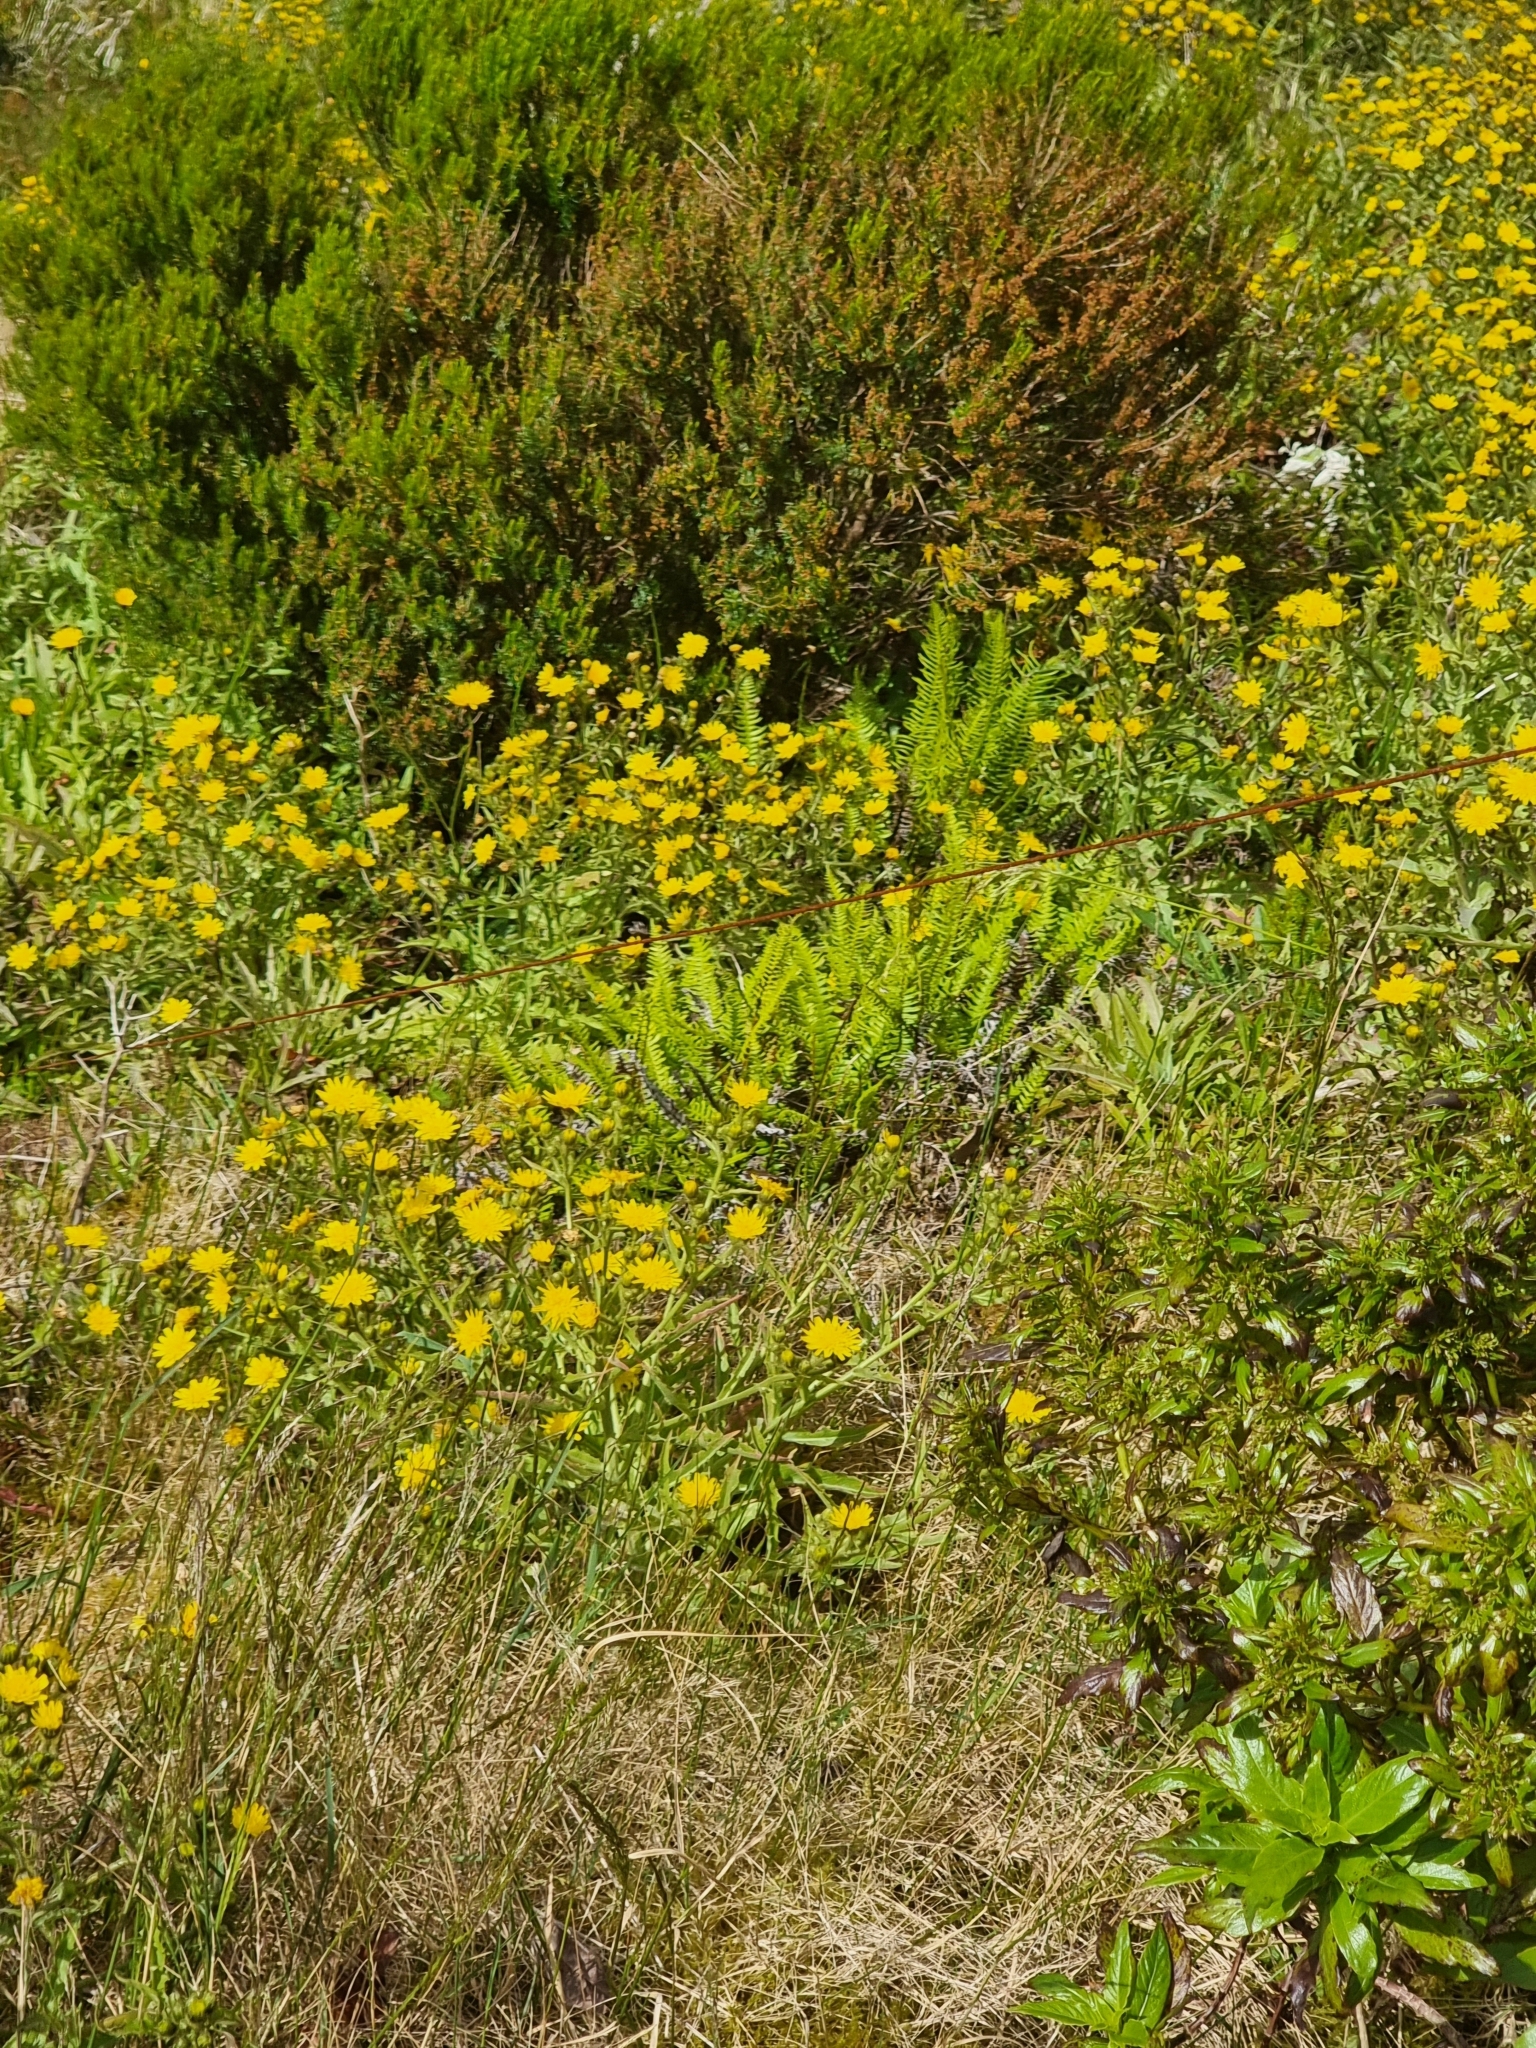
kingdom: Plantae
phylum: Tracheophyta
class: Polypodiopsida
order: Polypodiales
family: Blechnaceae
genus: Struthiopteris
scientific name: Struthiopteris spicant
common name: Deer fern
